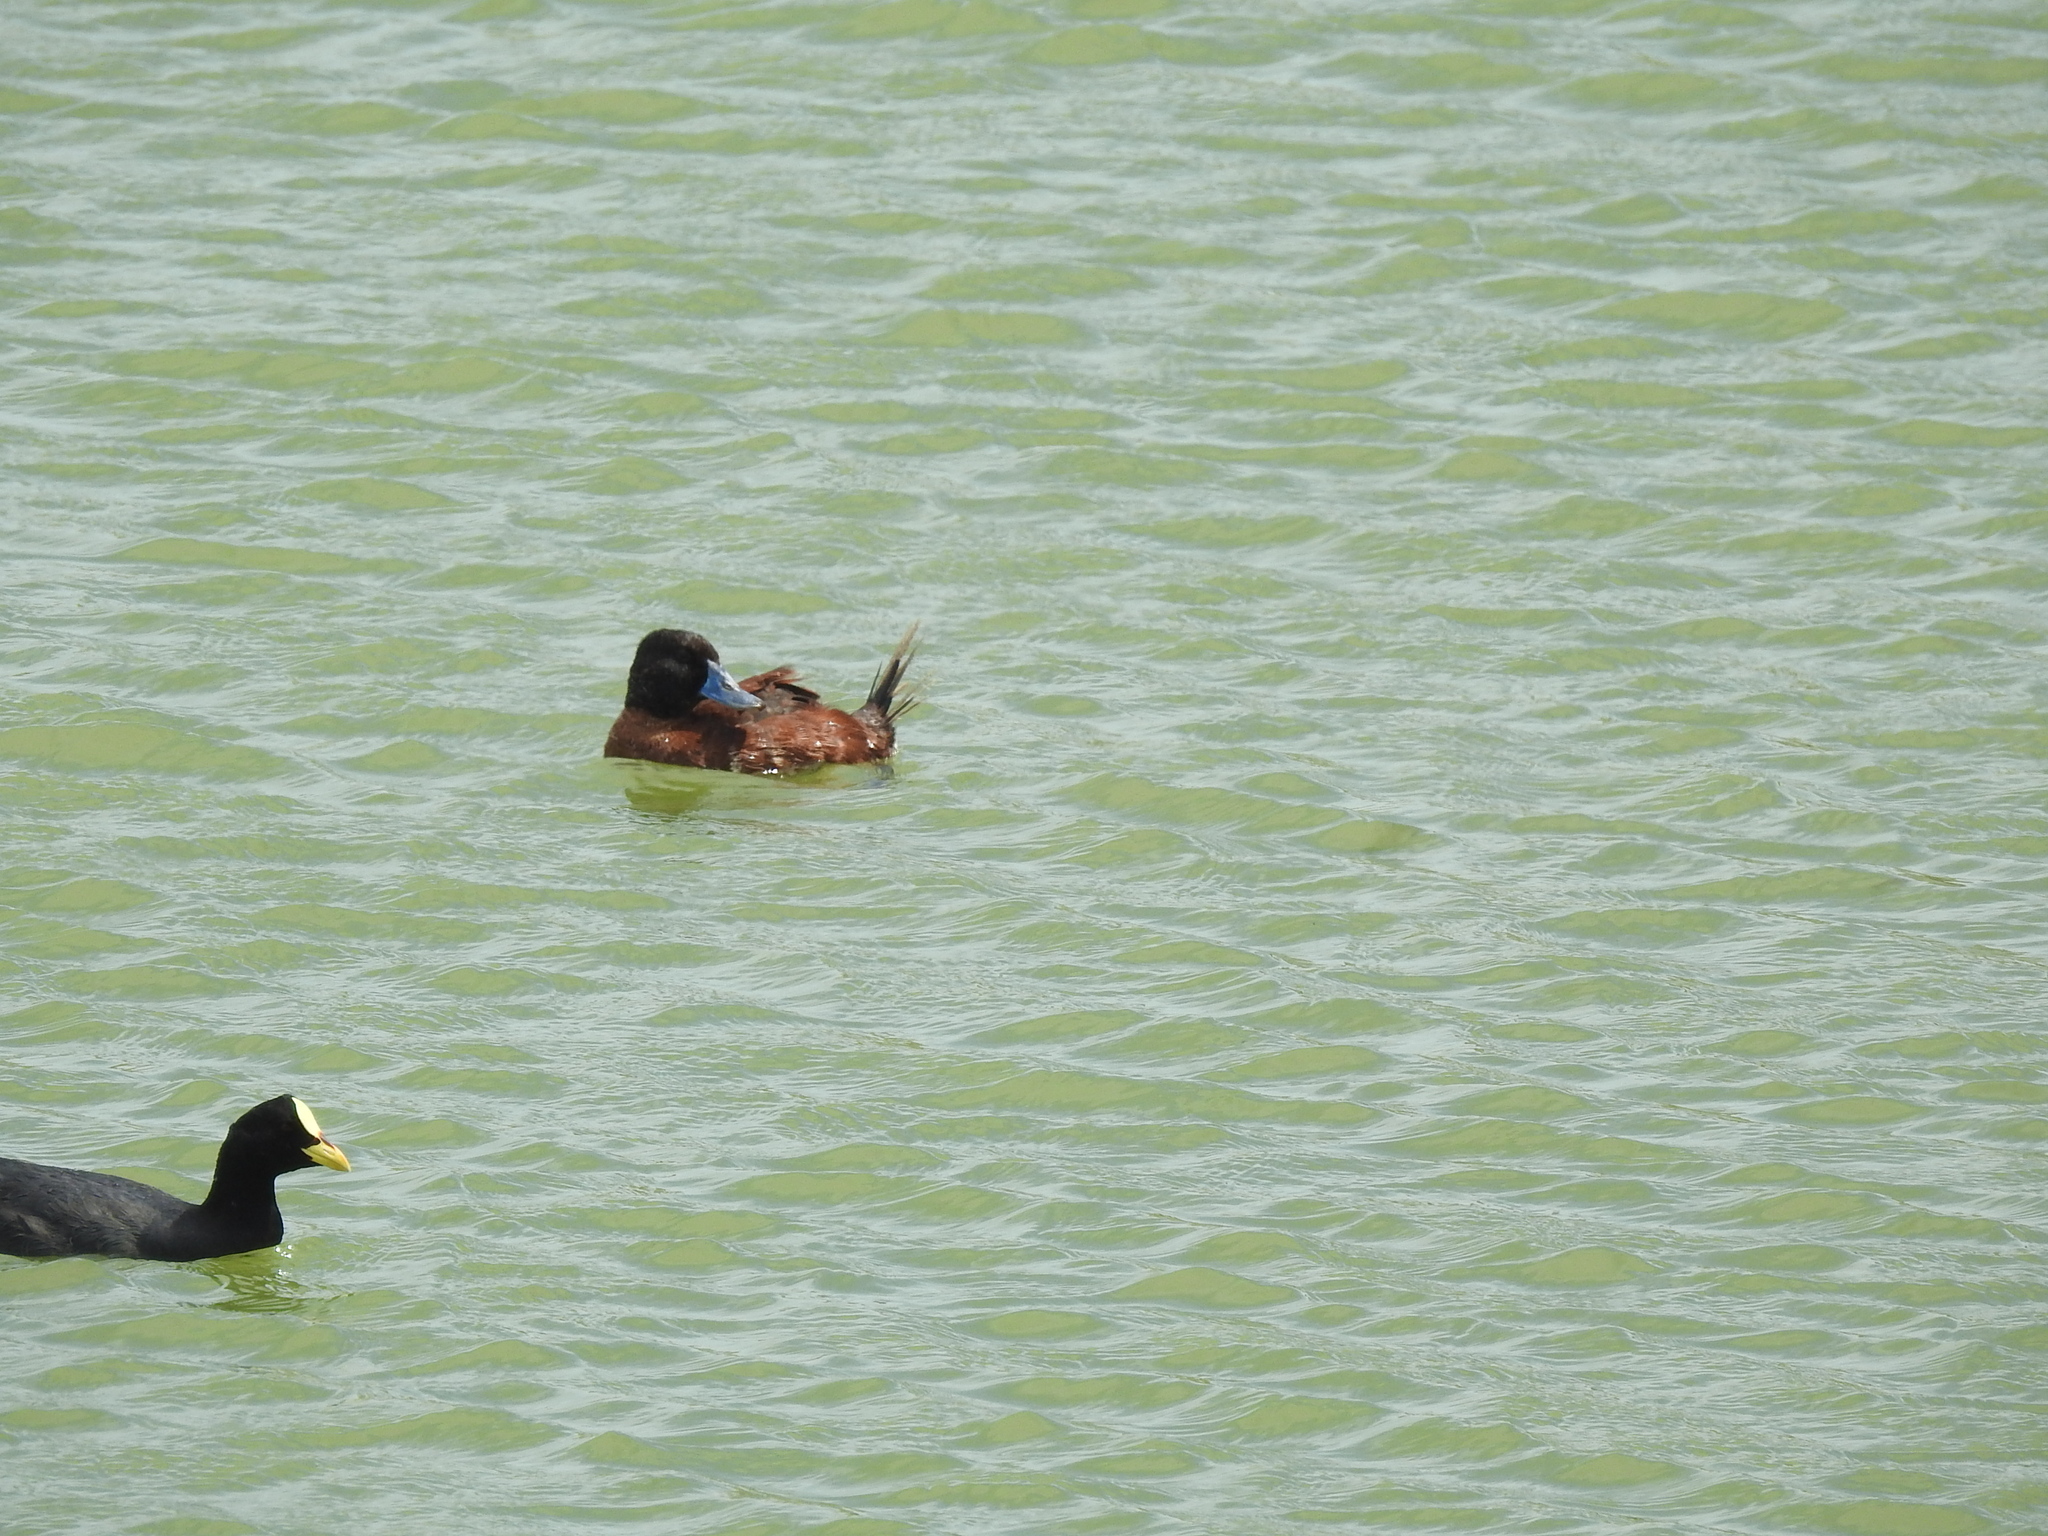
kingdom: Animalia
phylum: Chordata
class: Aves
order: Anseriformes
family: Anatidae
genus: Oxyura
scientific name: Oxyura vittata
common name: Lake duck
